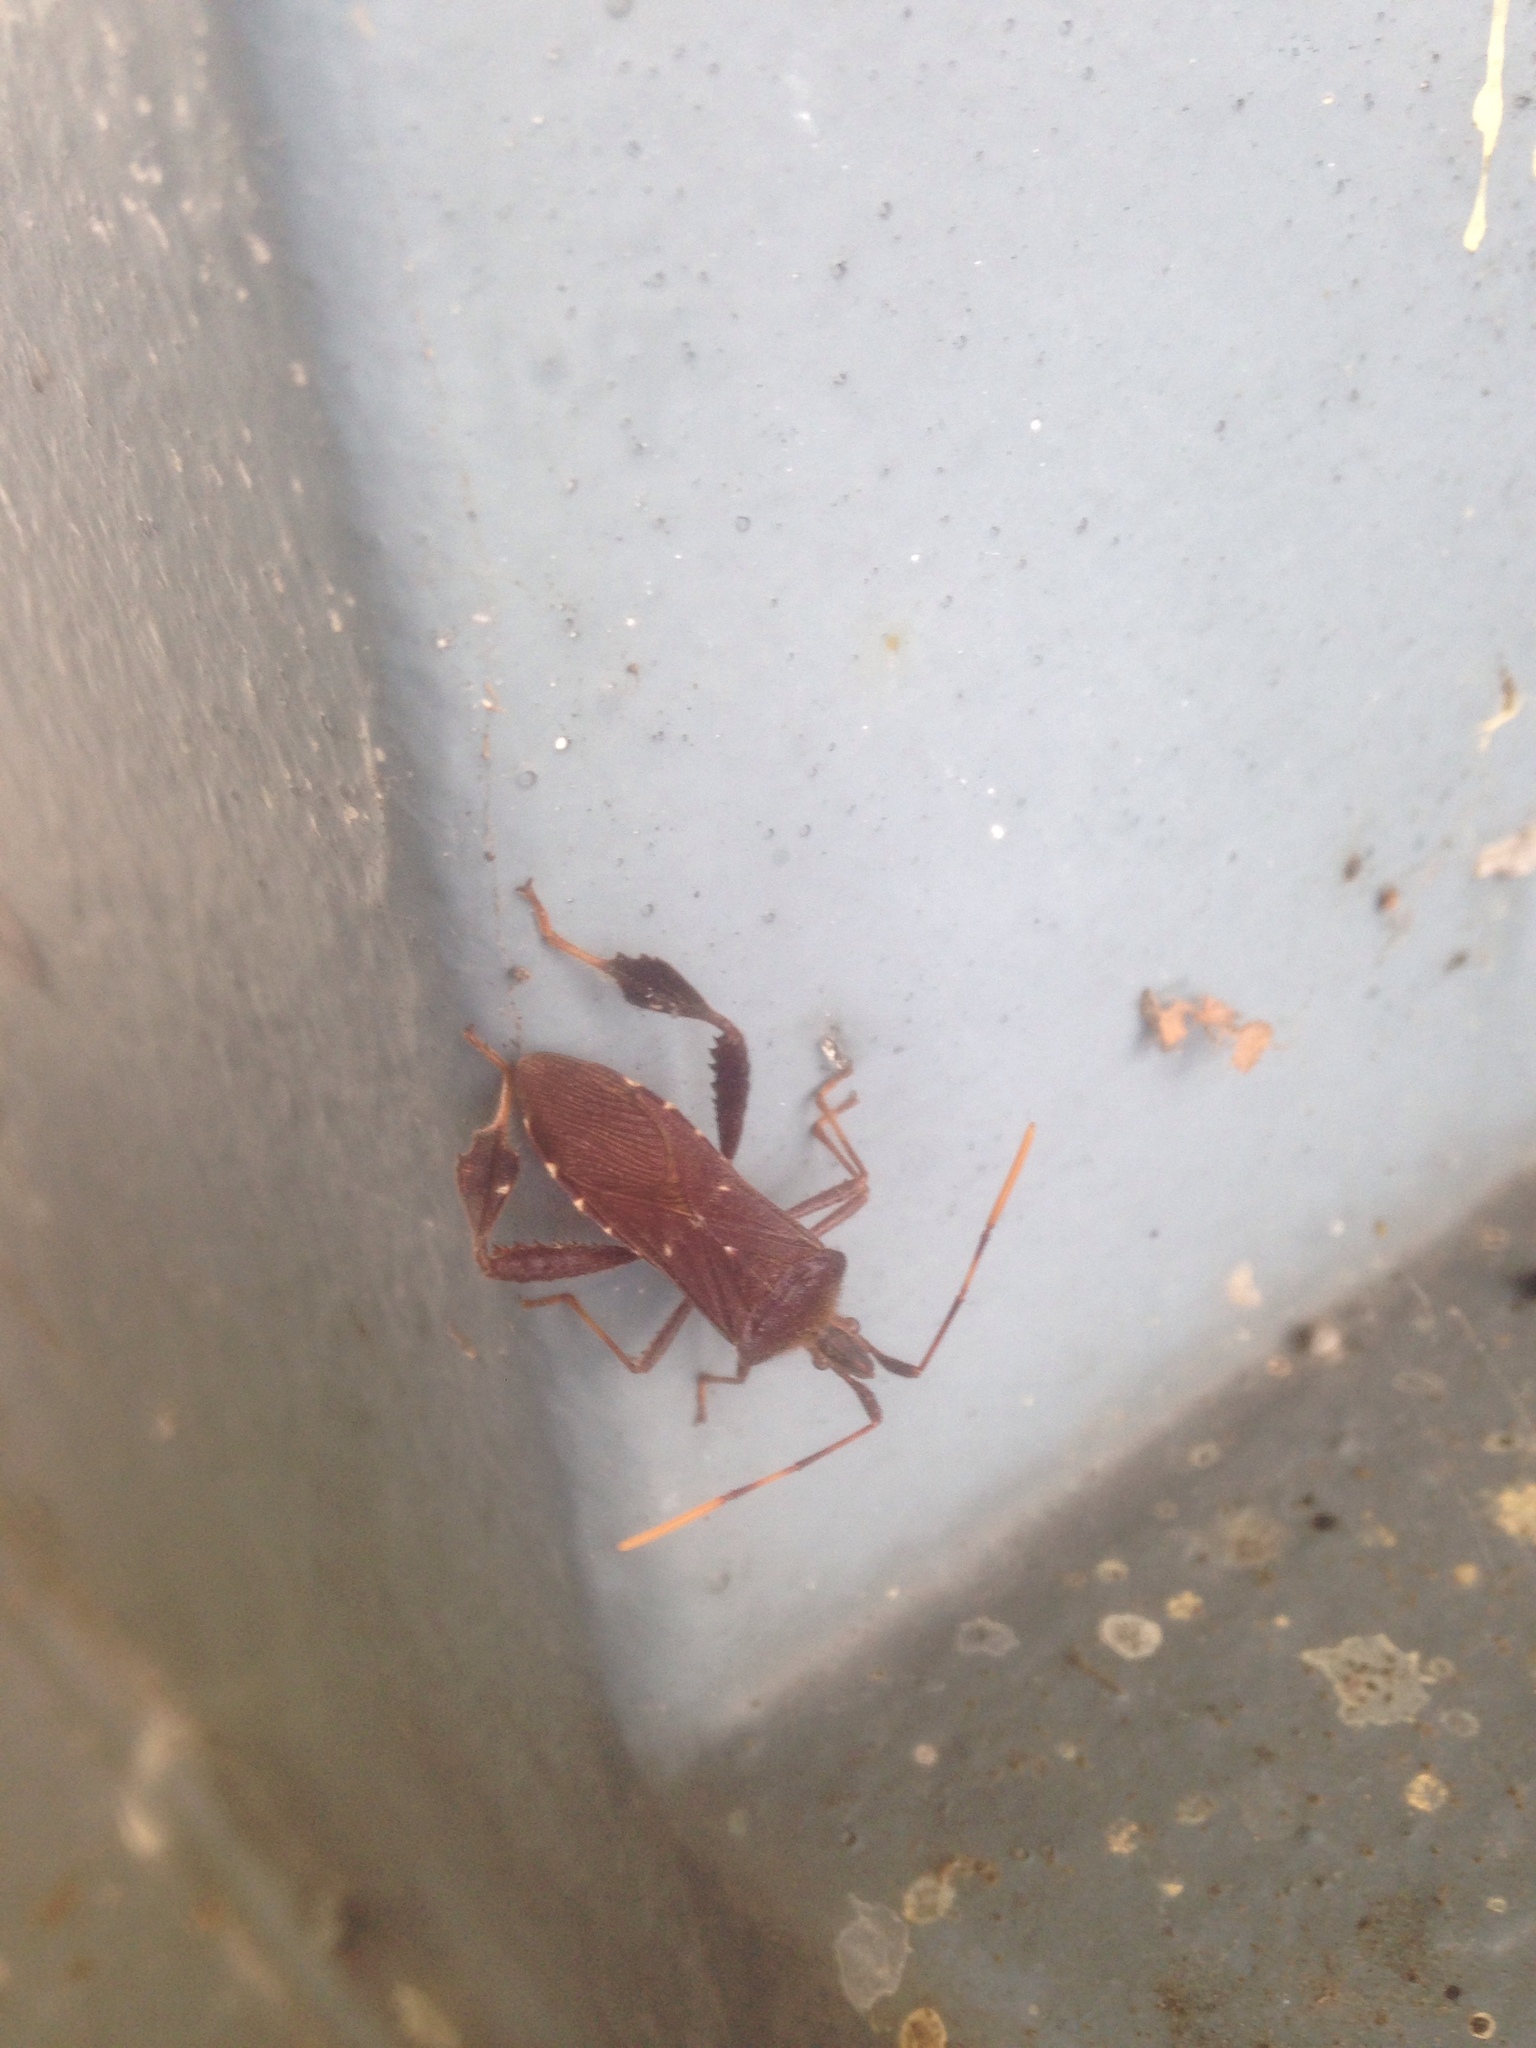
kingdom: Animalia
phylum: Arthropoda
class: Insecta
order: Hemiptera
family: Coreidae
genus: Leptoglossus
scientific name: Leptoglossus oppositus
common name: Northern leaf-footed bug
